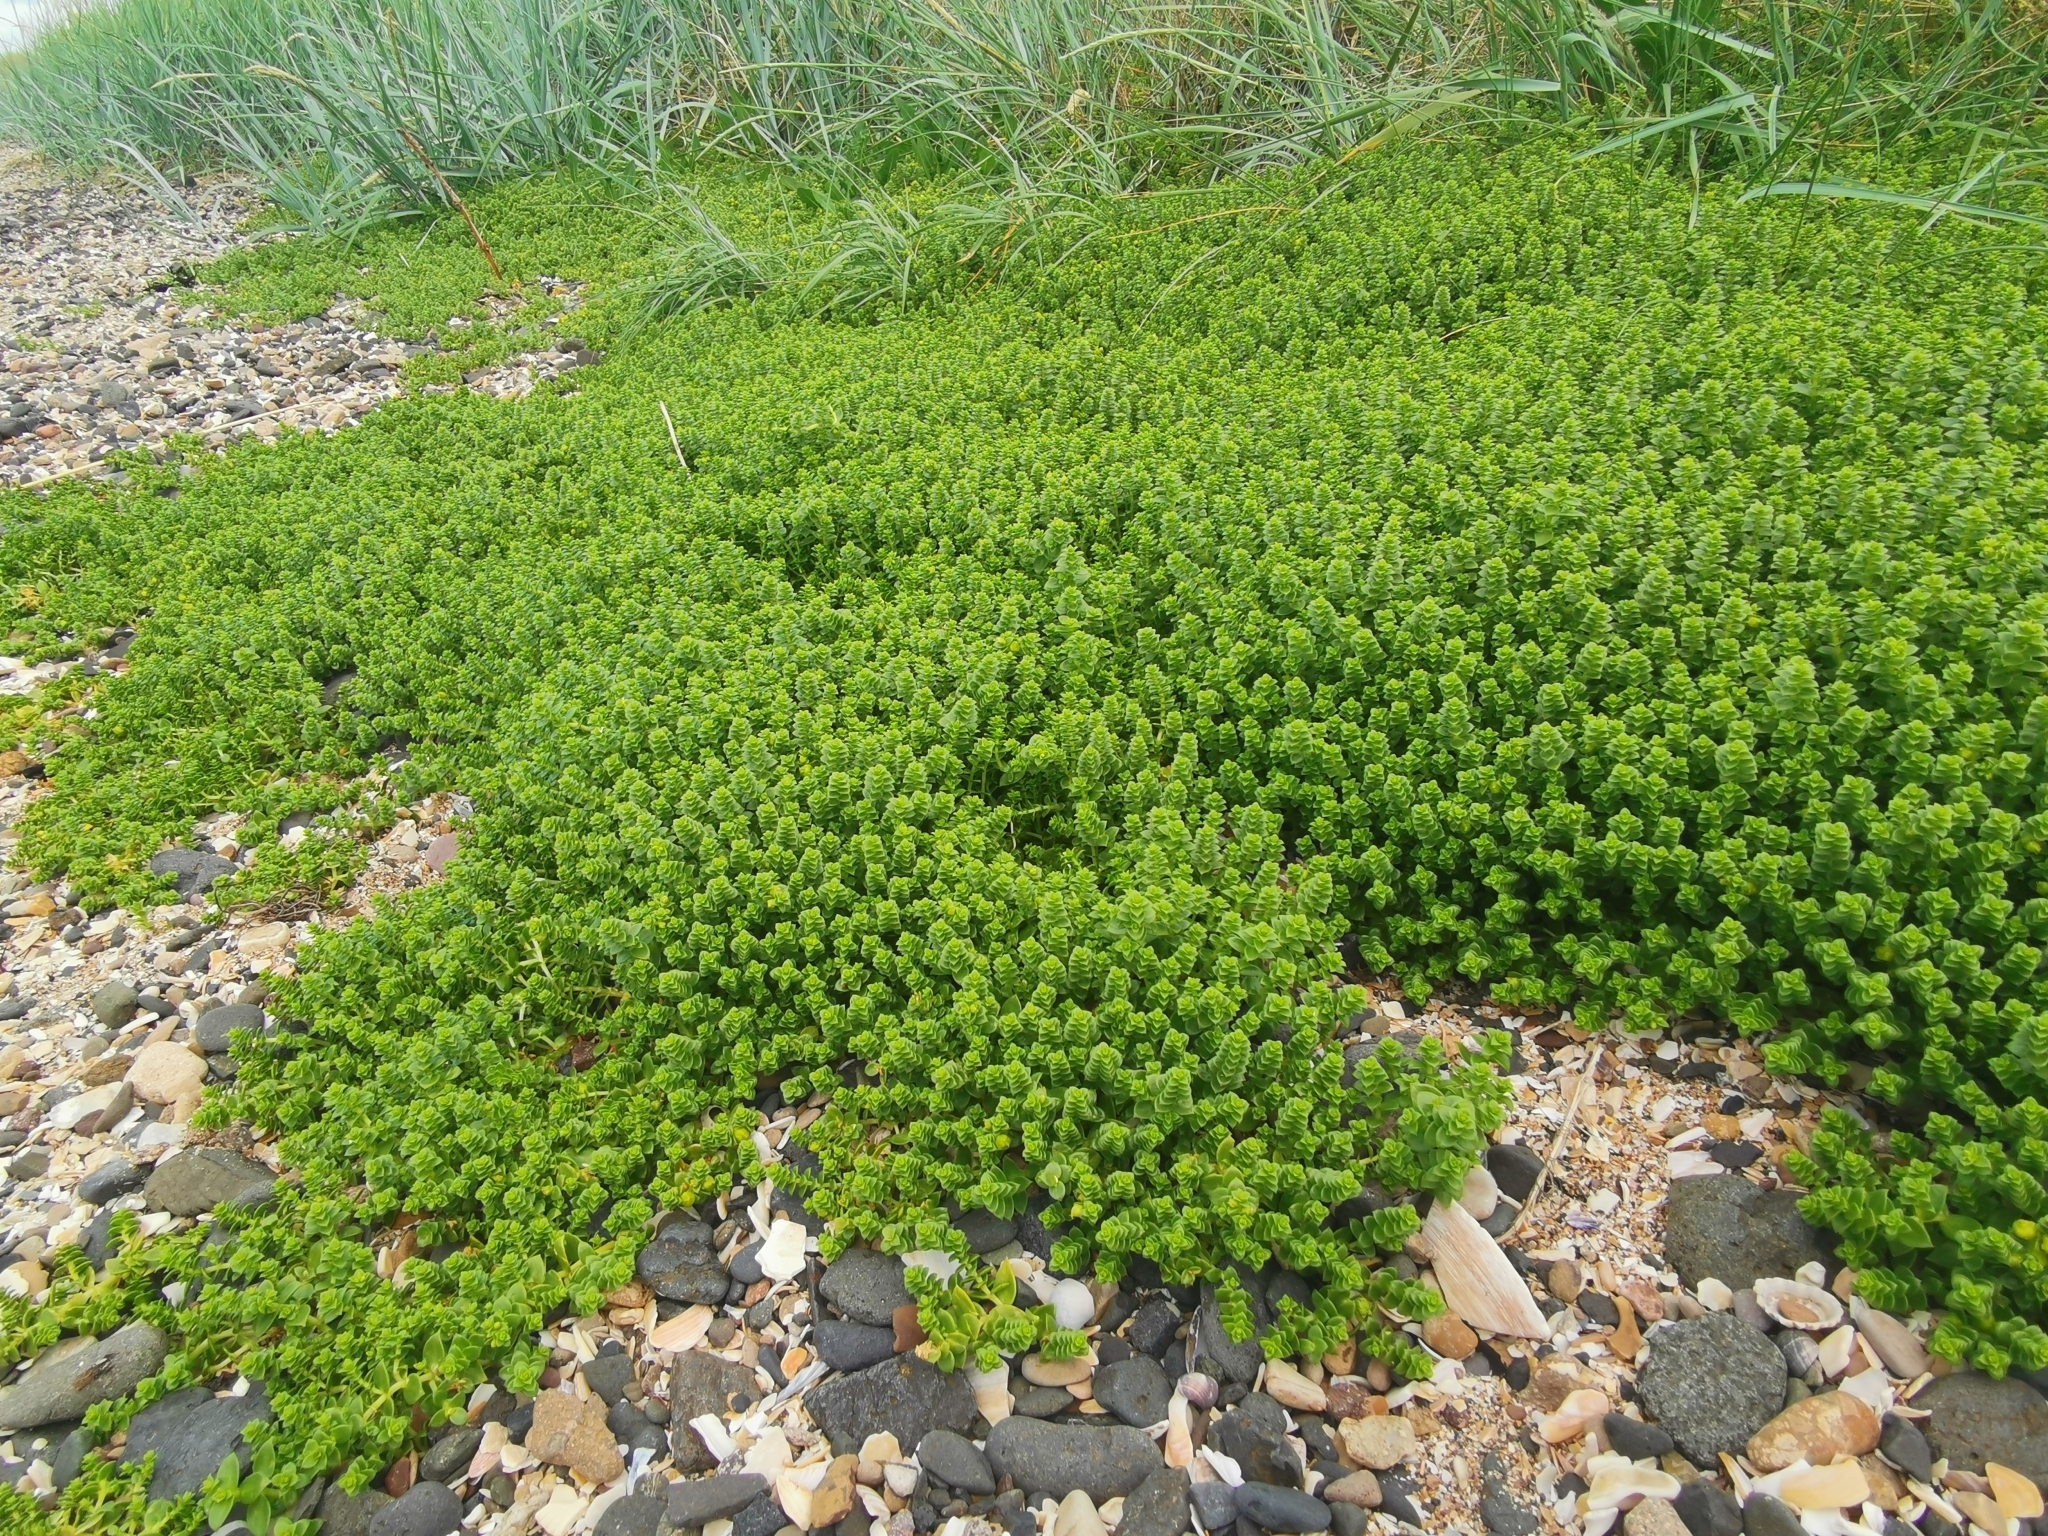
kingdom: Plantae
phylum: Tracheophyta
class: Magnoliopsida
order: Caryophyllales
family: Caryophyllaceae
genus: Honckenya
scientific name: Honckenya peploides
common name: Sea sandwort
